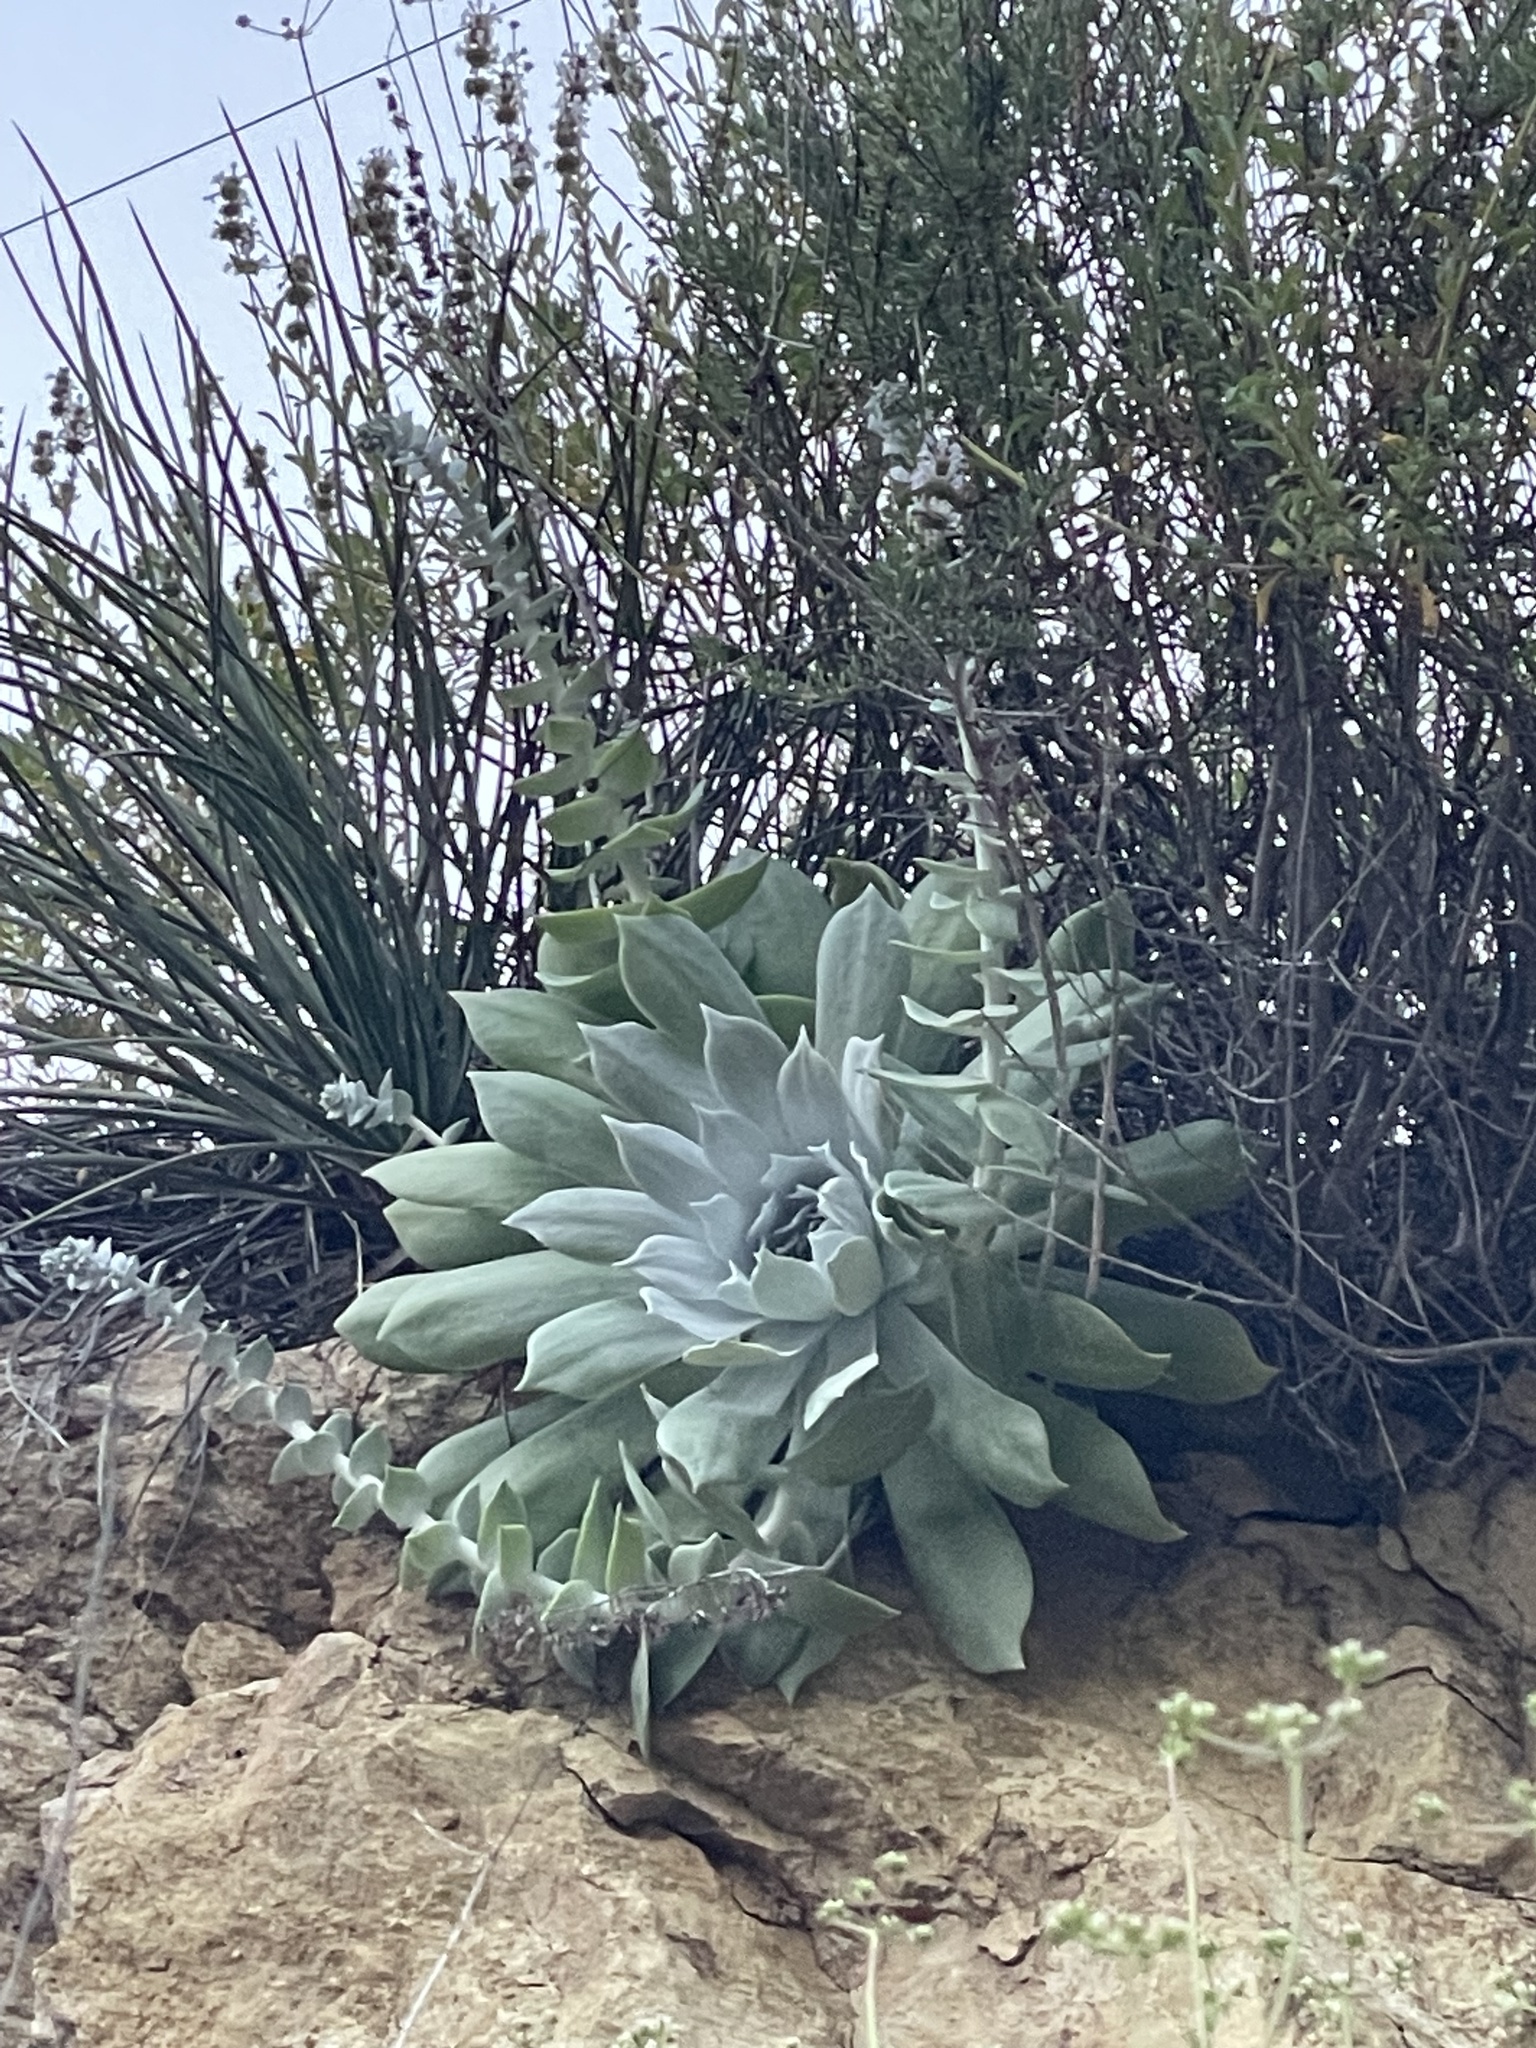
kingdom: Plantae
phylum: Tracheophyta
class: Magnoliopsida
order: Saxifragales
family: Crassulaceae
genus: Dudleya
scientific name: Dudleya pulverulenta
